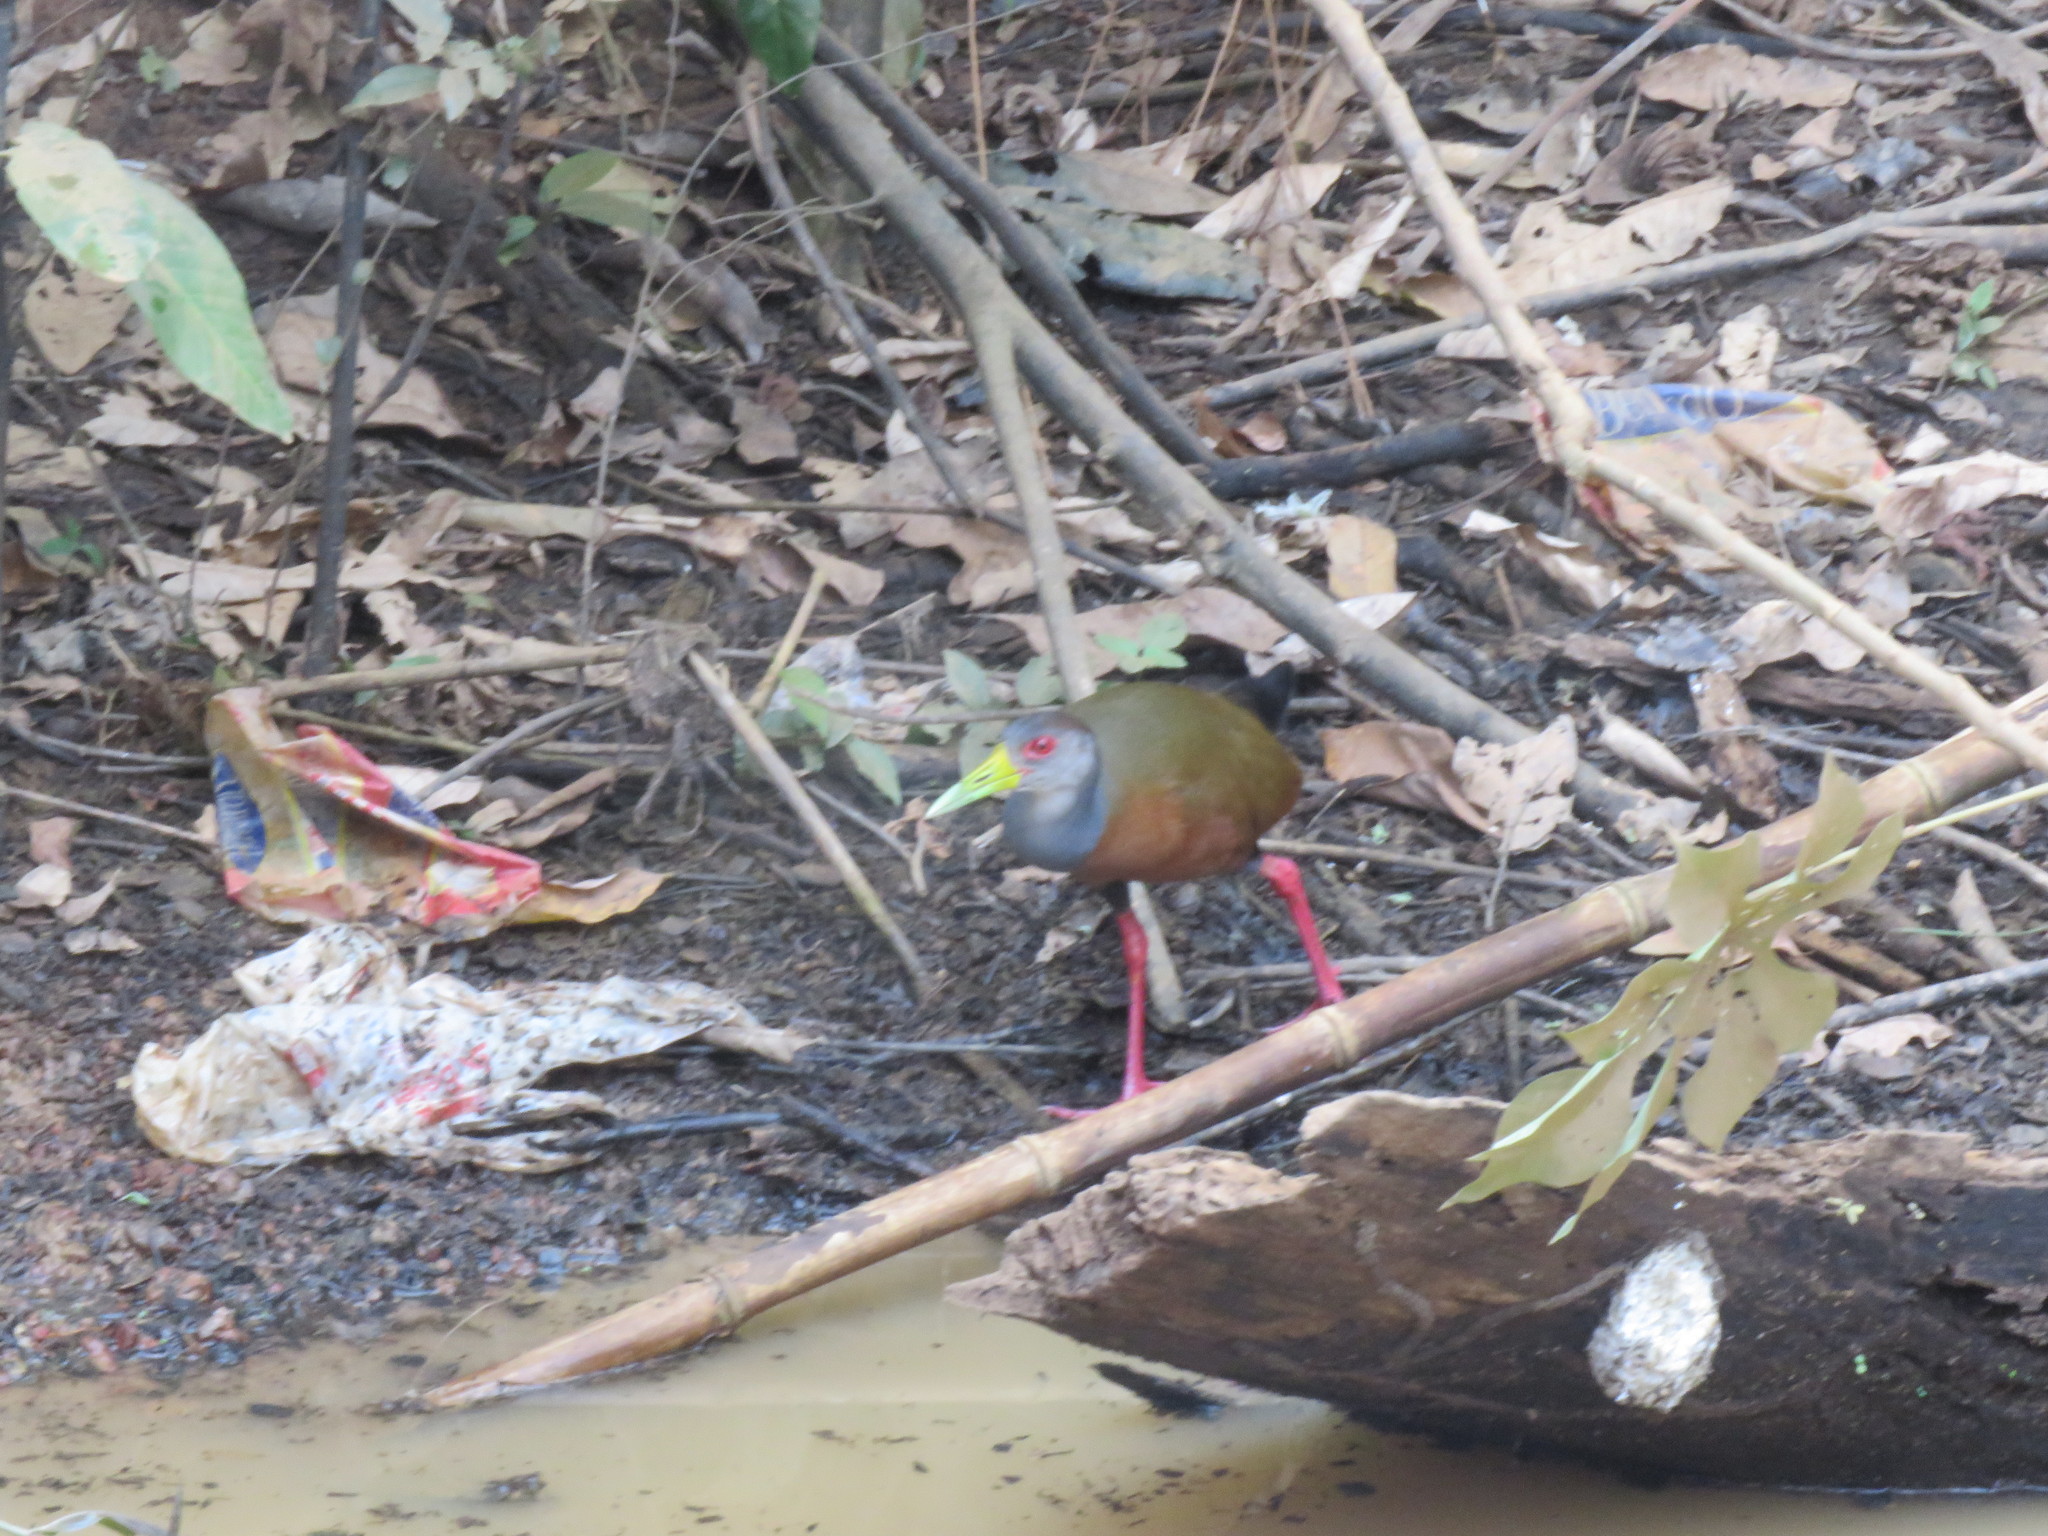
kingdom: Animalia
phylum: Chordata
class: Aves
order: Gruiformes
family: Rallidae
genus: Aramides
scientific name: Aramides cajanea
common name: Gray-necked wood-rail
